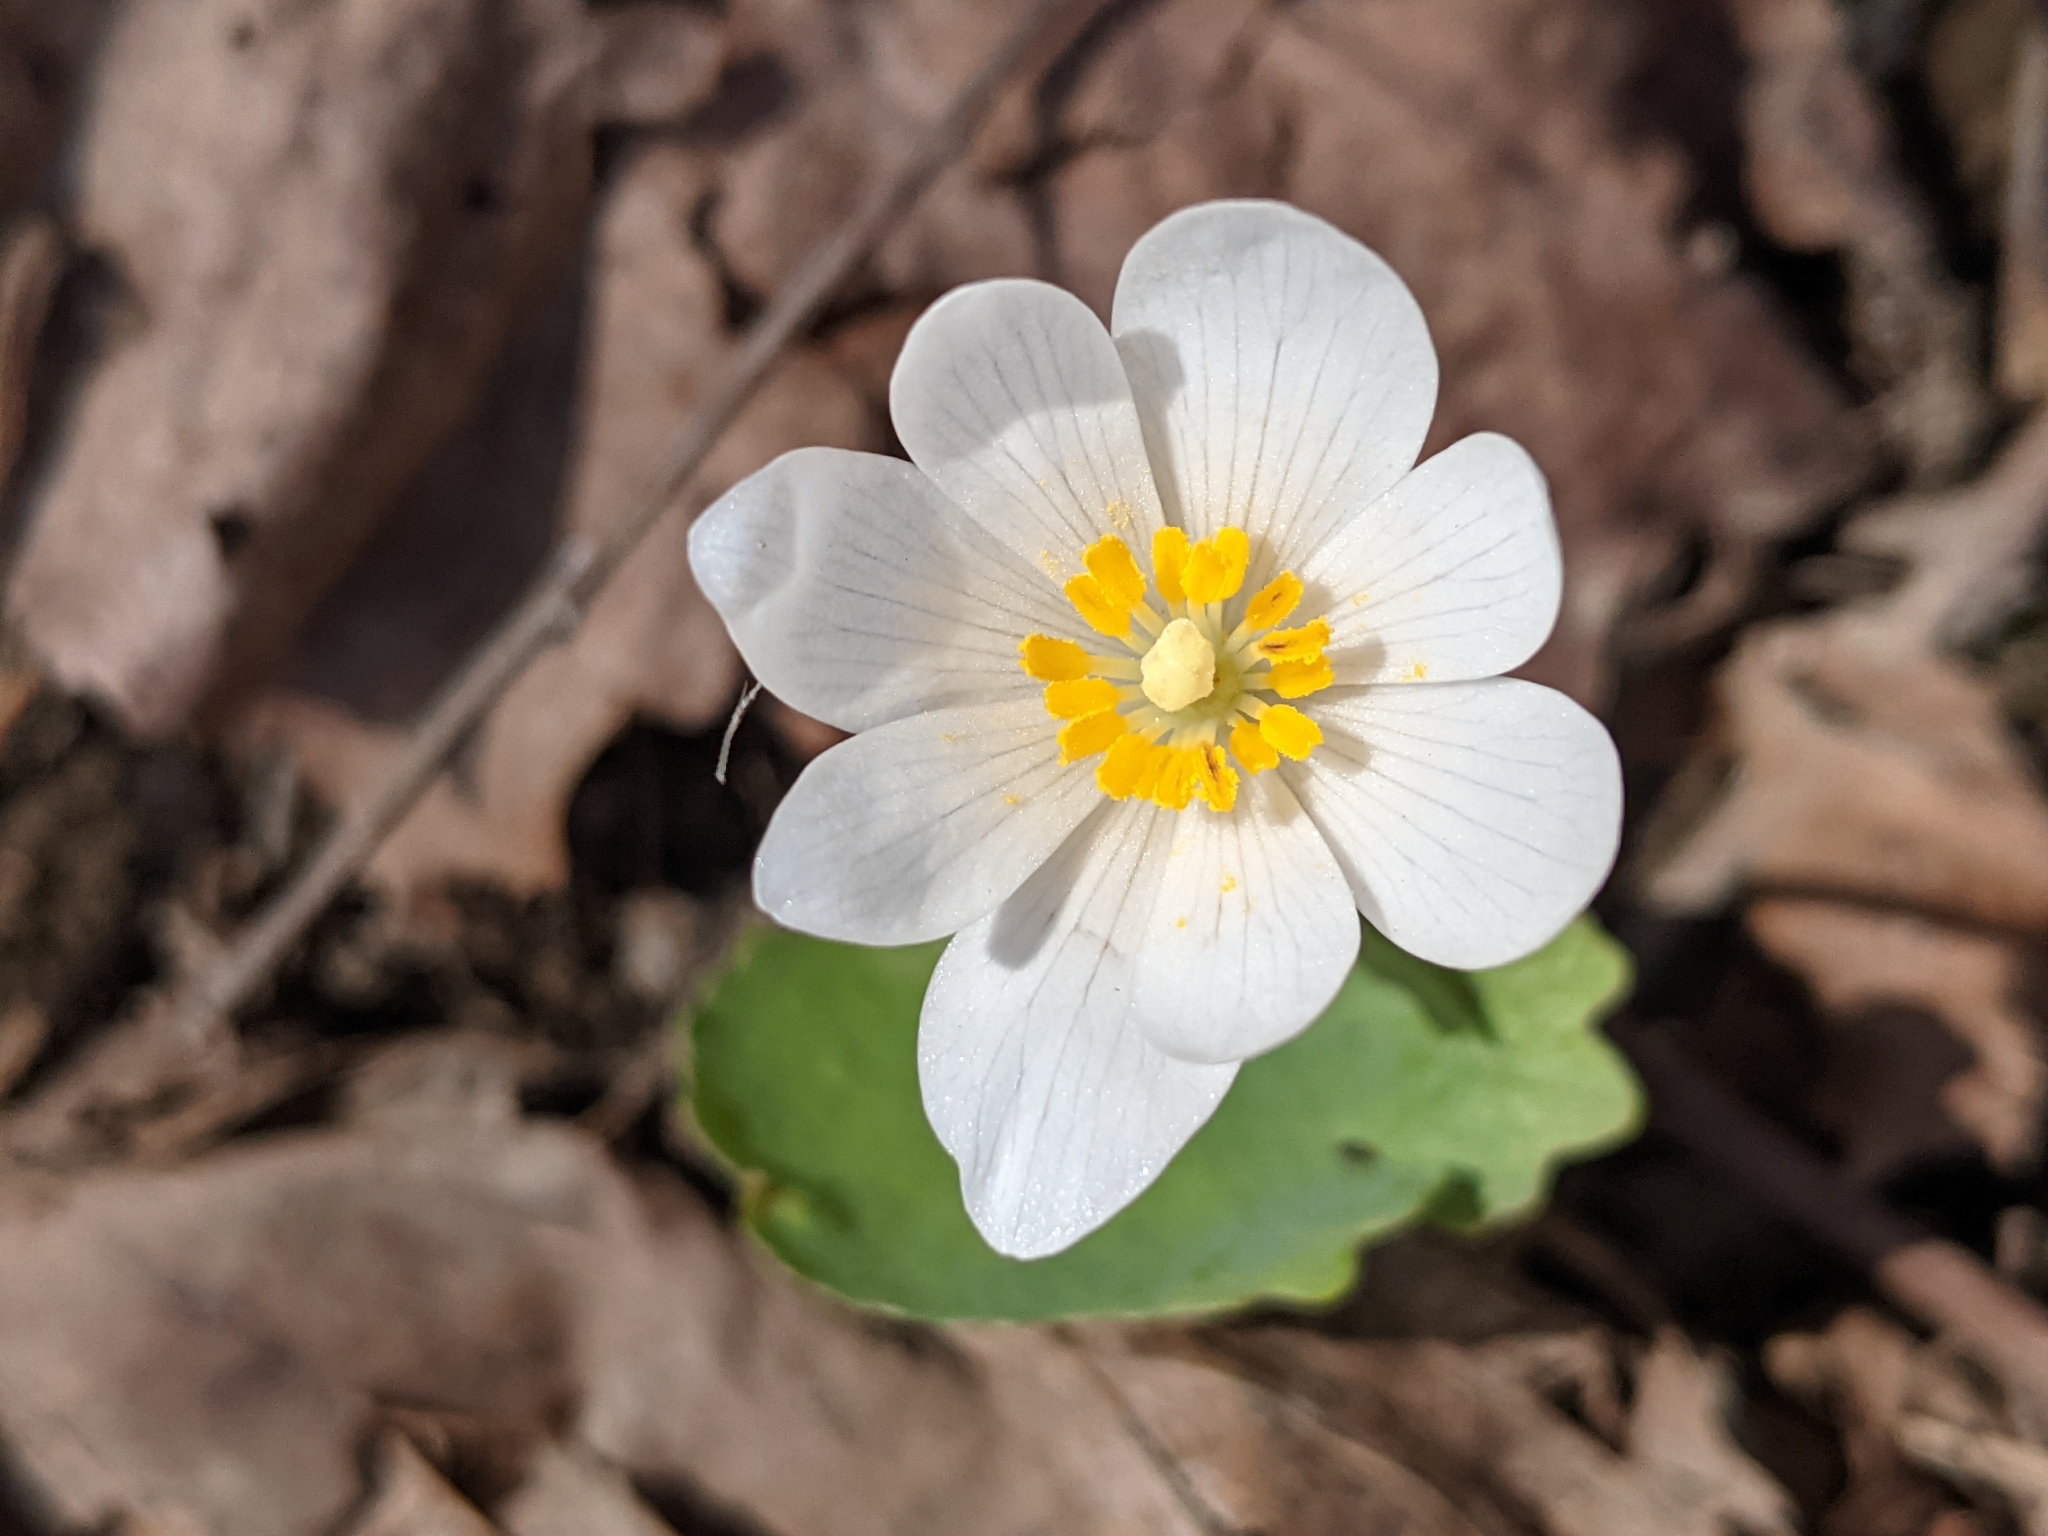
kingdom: Plantae
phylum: Tracheophyta
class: Magnoliopsida
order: Ranunculales
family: Papaveraceae
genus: Sanguinaria
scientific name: Sanguinaria canadensis
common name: Bloodroot
